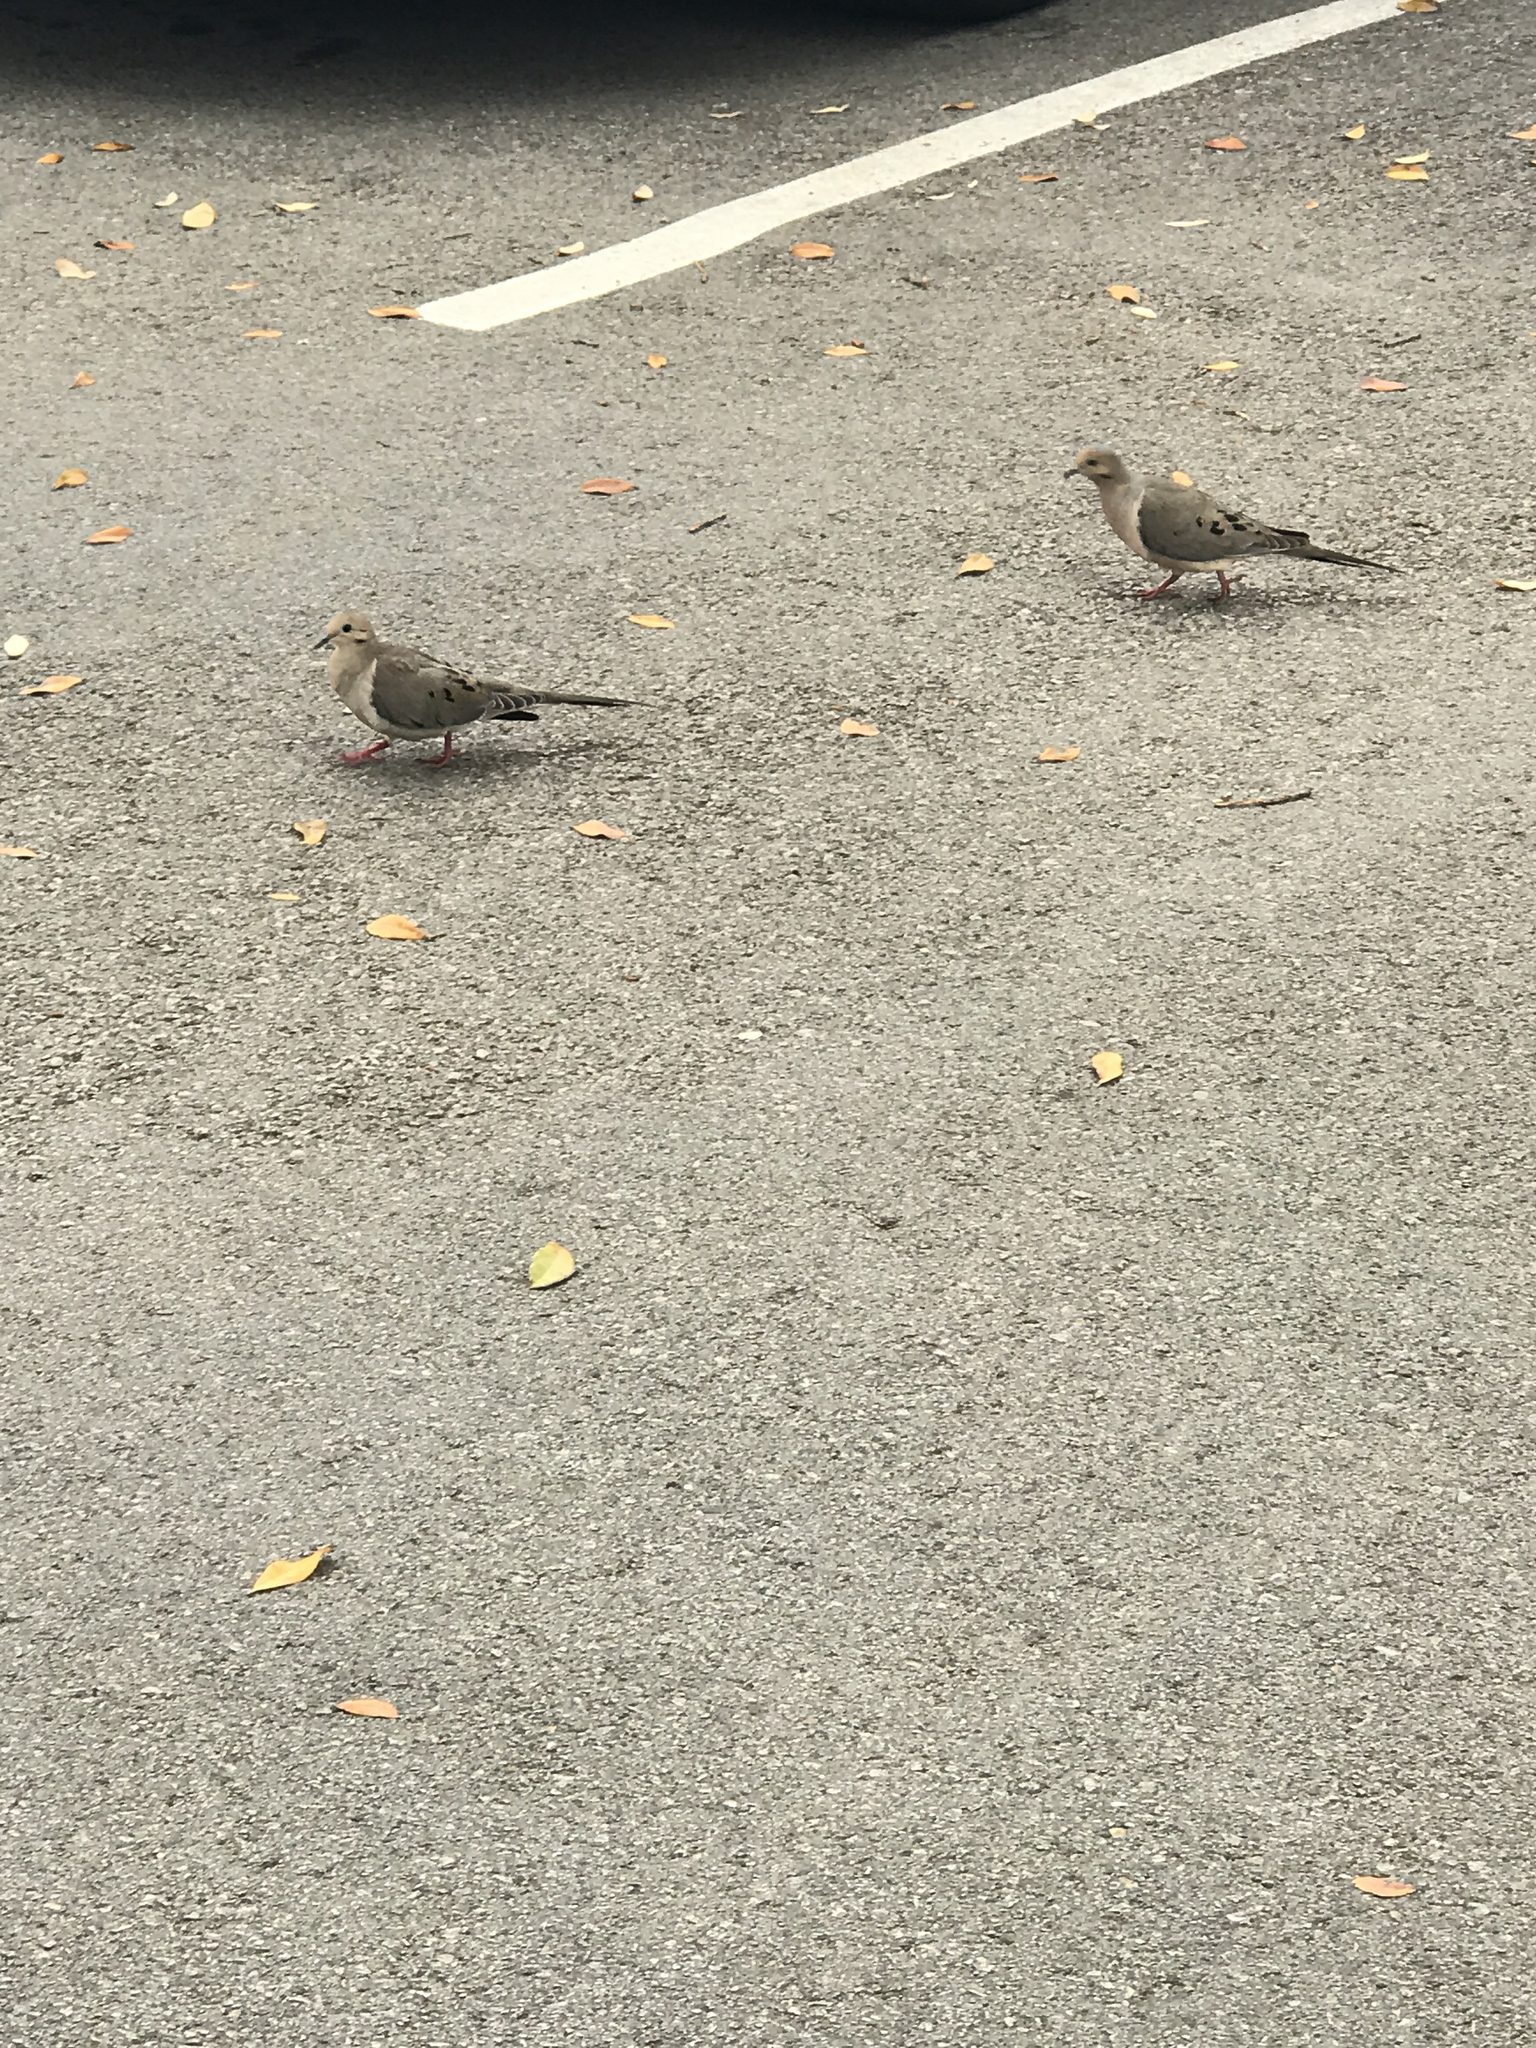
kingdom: Animalia
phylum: Chordata
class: Aves
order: Columbiformes
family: Columbidae
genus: Zenaida
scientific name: Zenaida macroura
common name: Mourning dove
